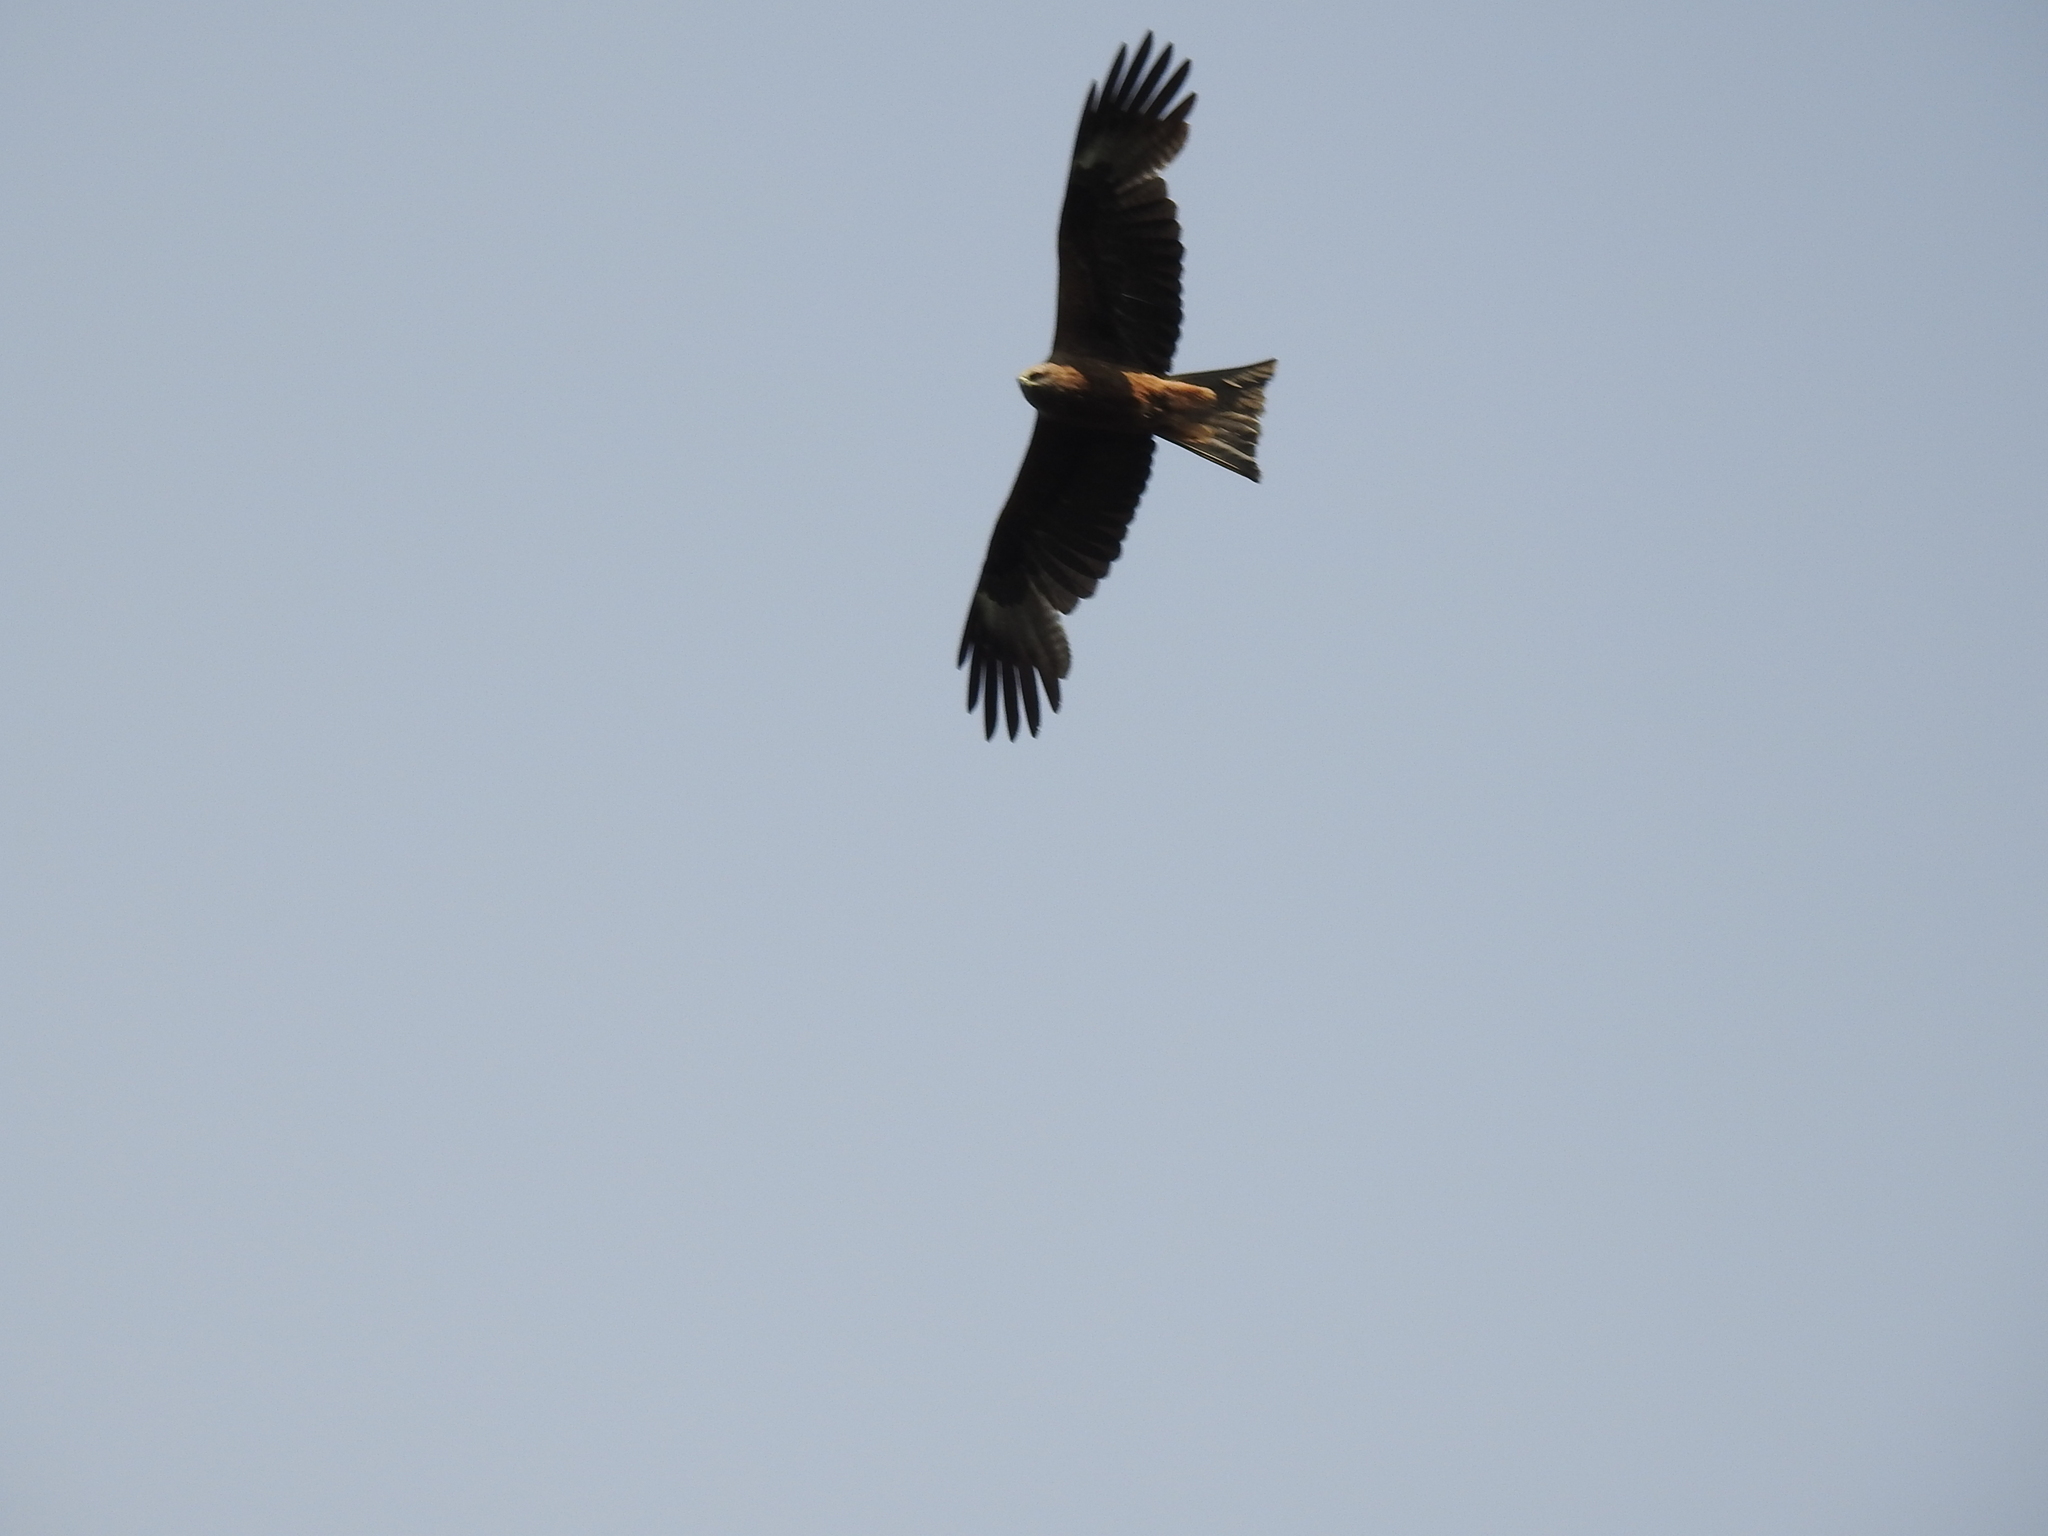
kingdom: Animalia
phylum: Chordata
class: Aves
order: Accipitriformes
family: Accipitridae
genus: Milvus
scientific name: Milvus migrans
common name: Black kite
